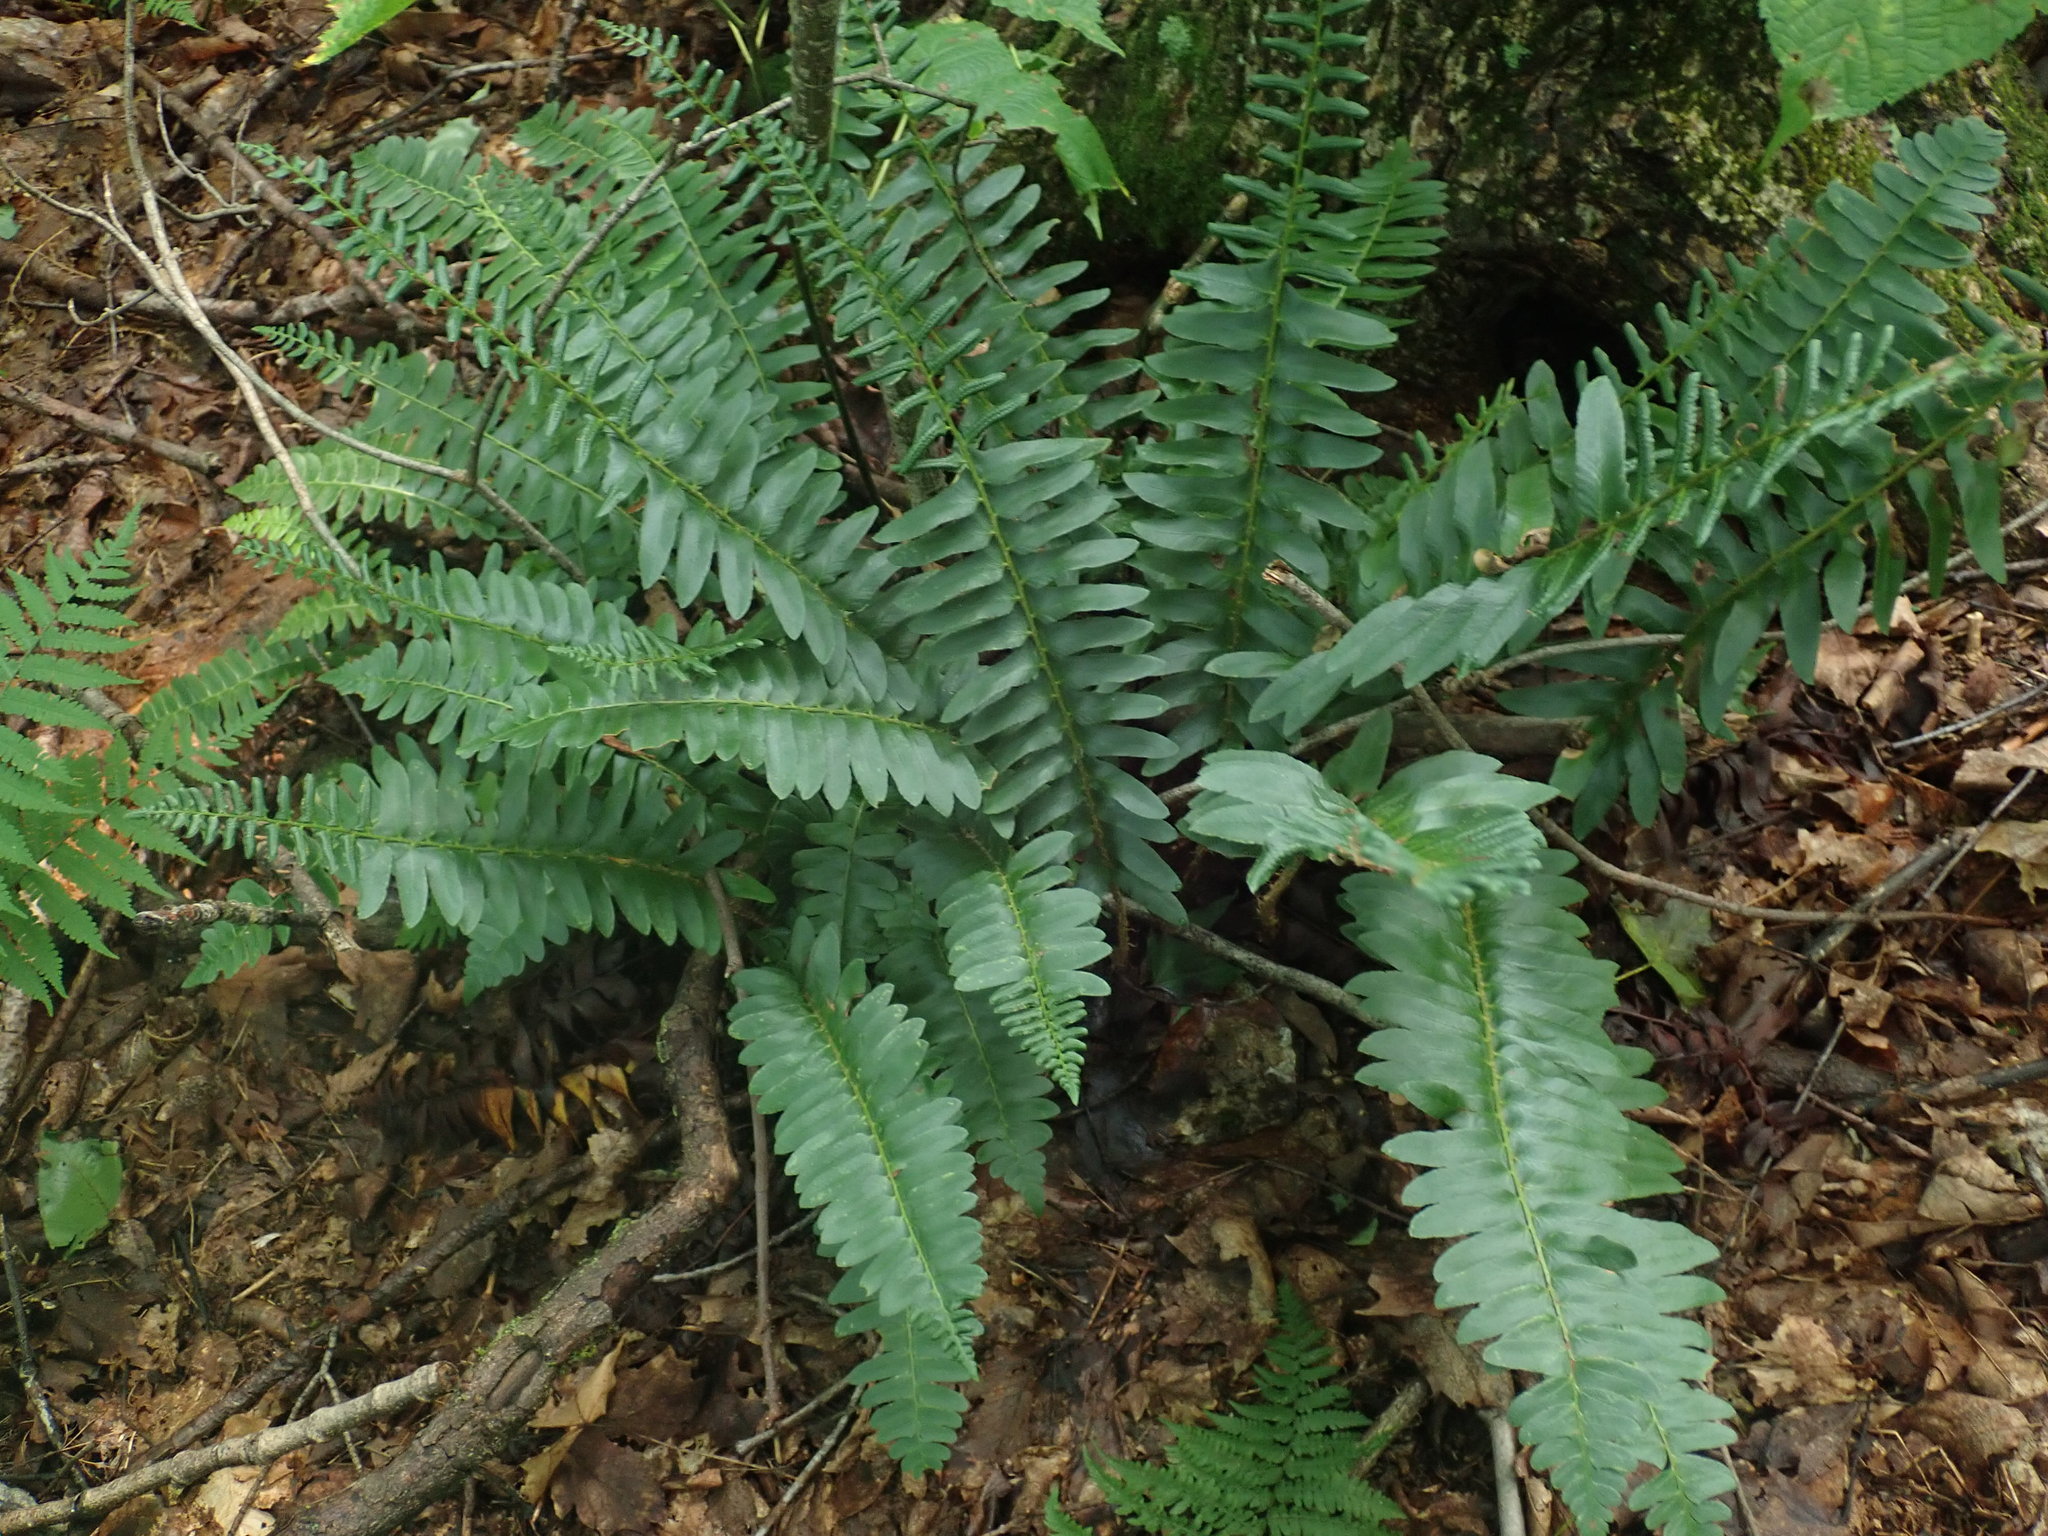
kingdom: Plantae
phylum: Tracheophyta
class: Polypodiopsida
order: Polypodiales
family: Dryopteridaceae
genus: Polystichum
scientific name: Polystichum acrostichoides
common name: Christmas fern
